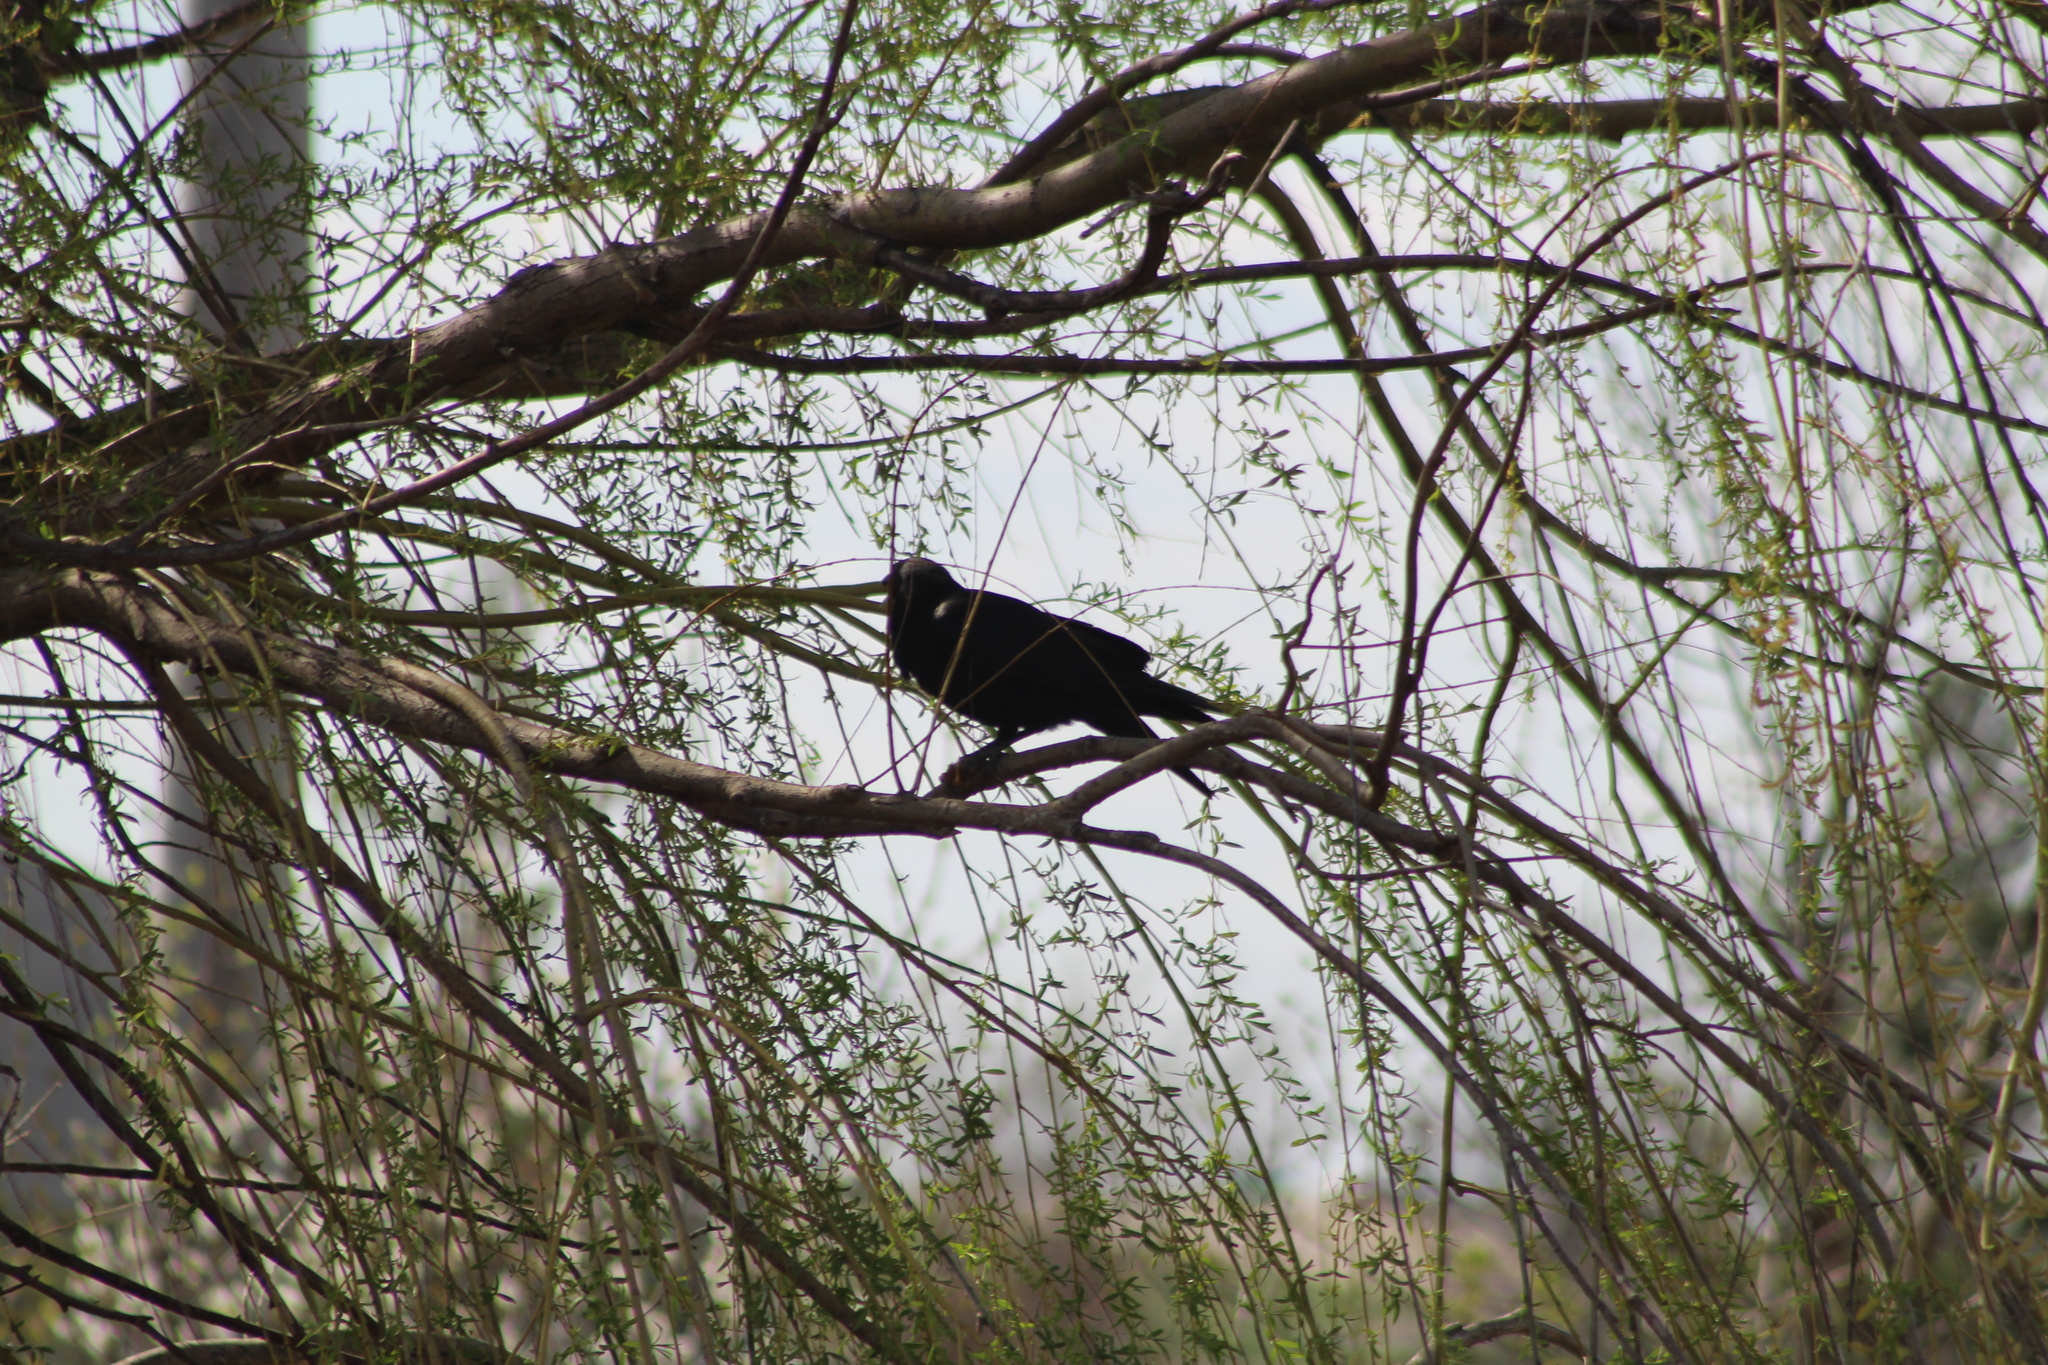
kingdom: Animalia
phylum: Chordata
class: Aves
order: Passeriformes
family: Corvidae
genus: Corvus
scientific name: Corvus brachyrhynchos
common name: American crow
